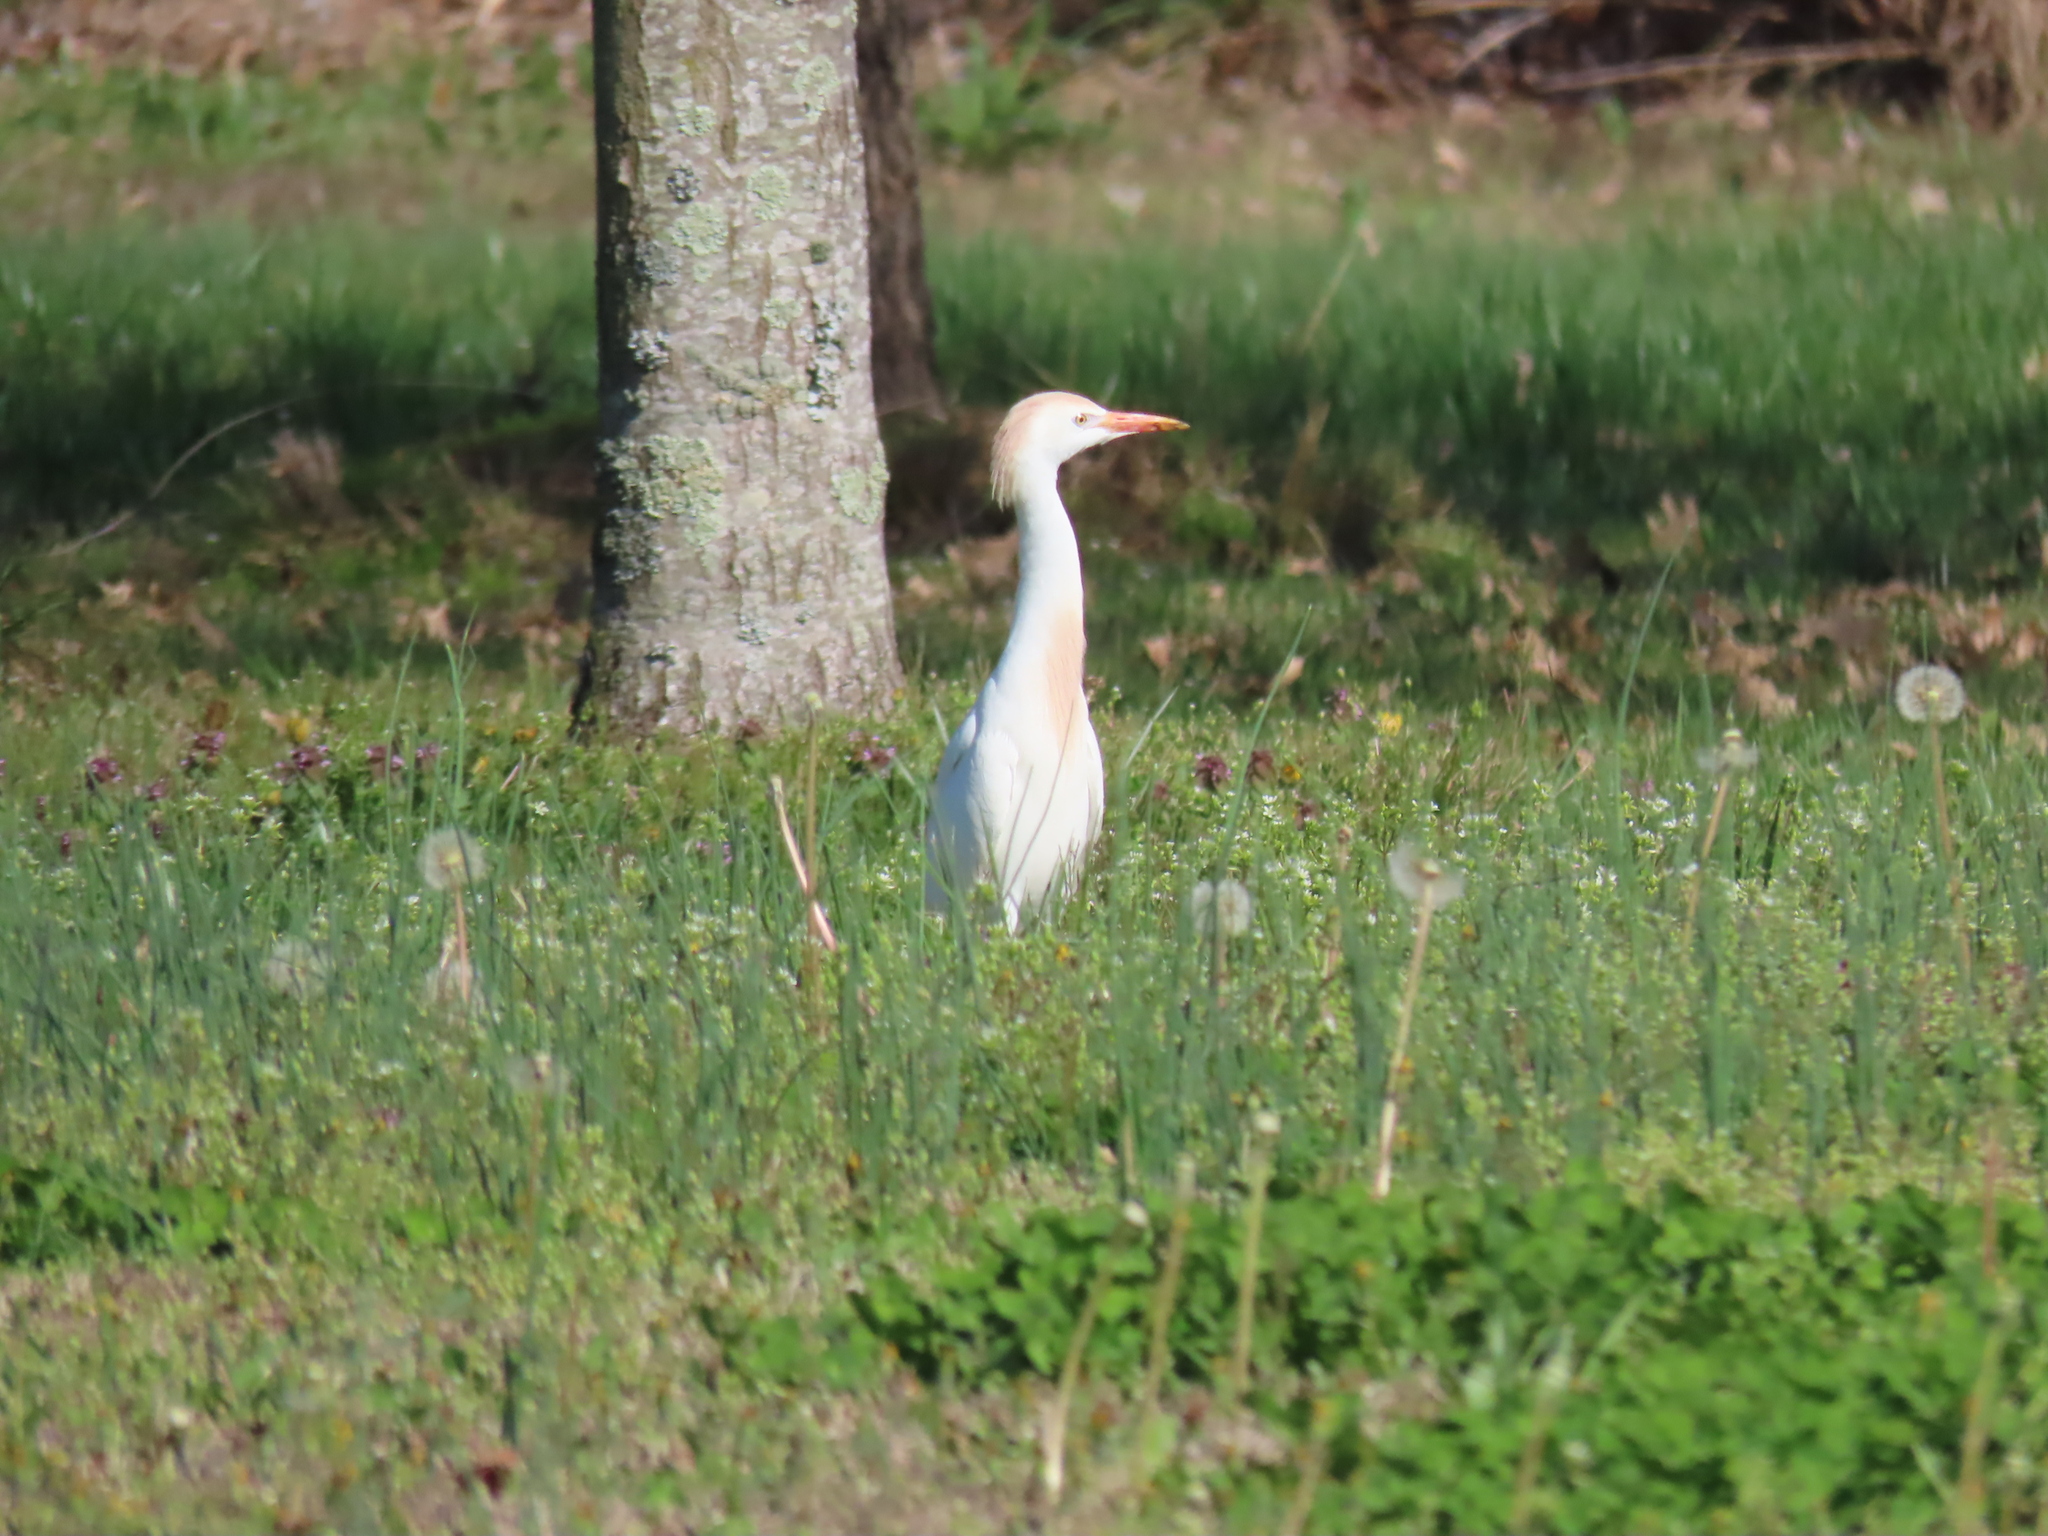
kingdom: Animalia
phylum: Chordata
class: Aves
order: Pelecaniformes
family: Ardeidae
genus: Bubulcus
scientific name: Bubulcus ibis
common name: Cattle egret
